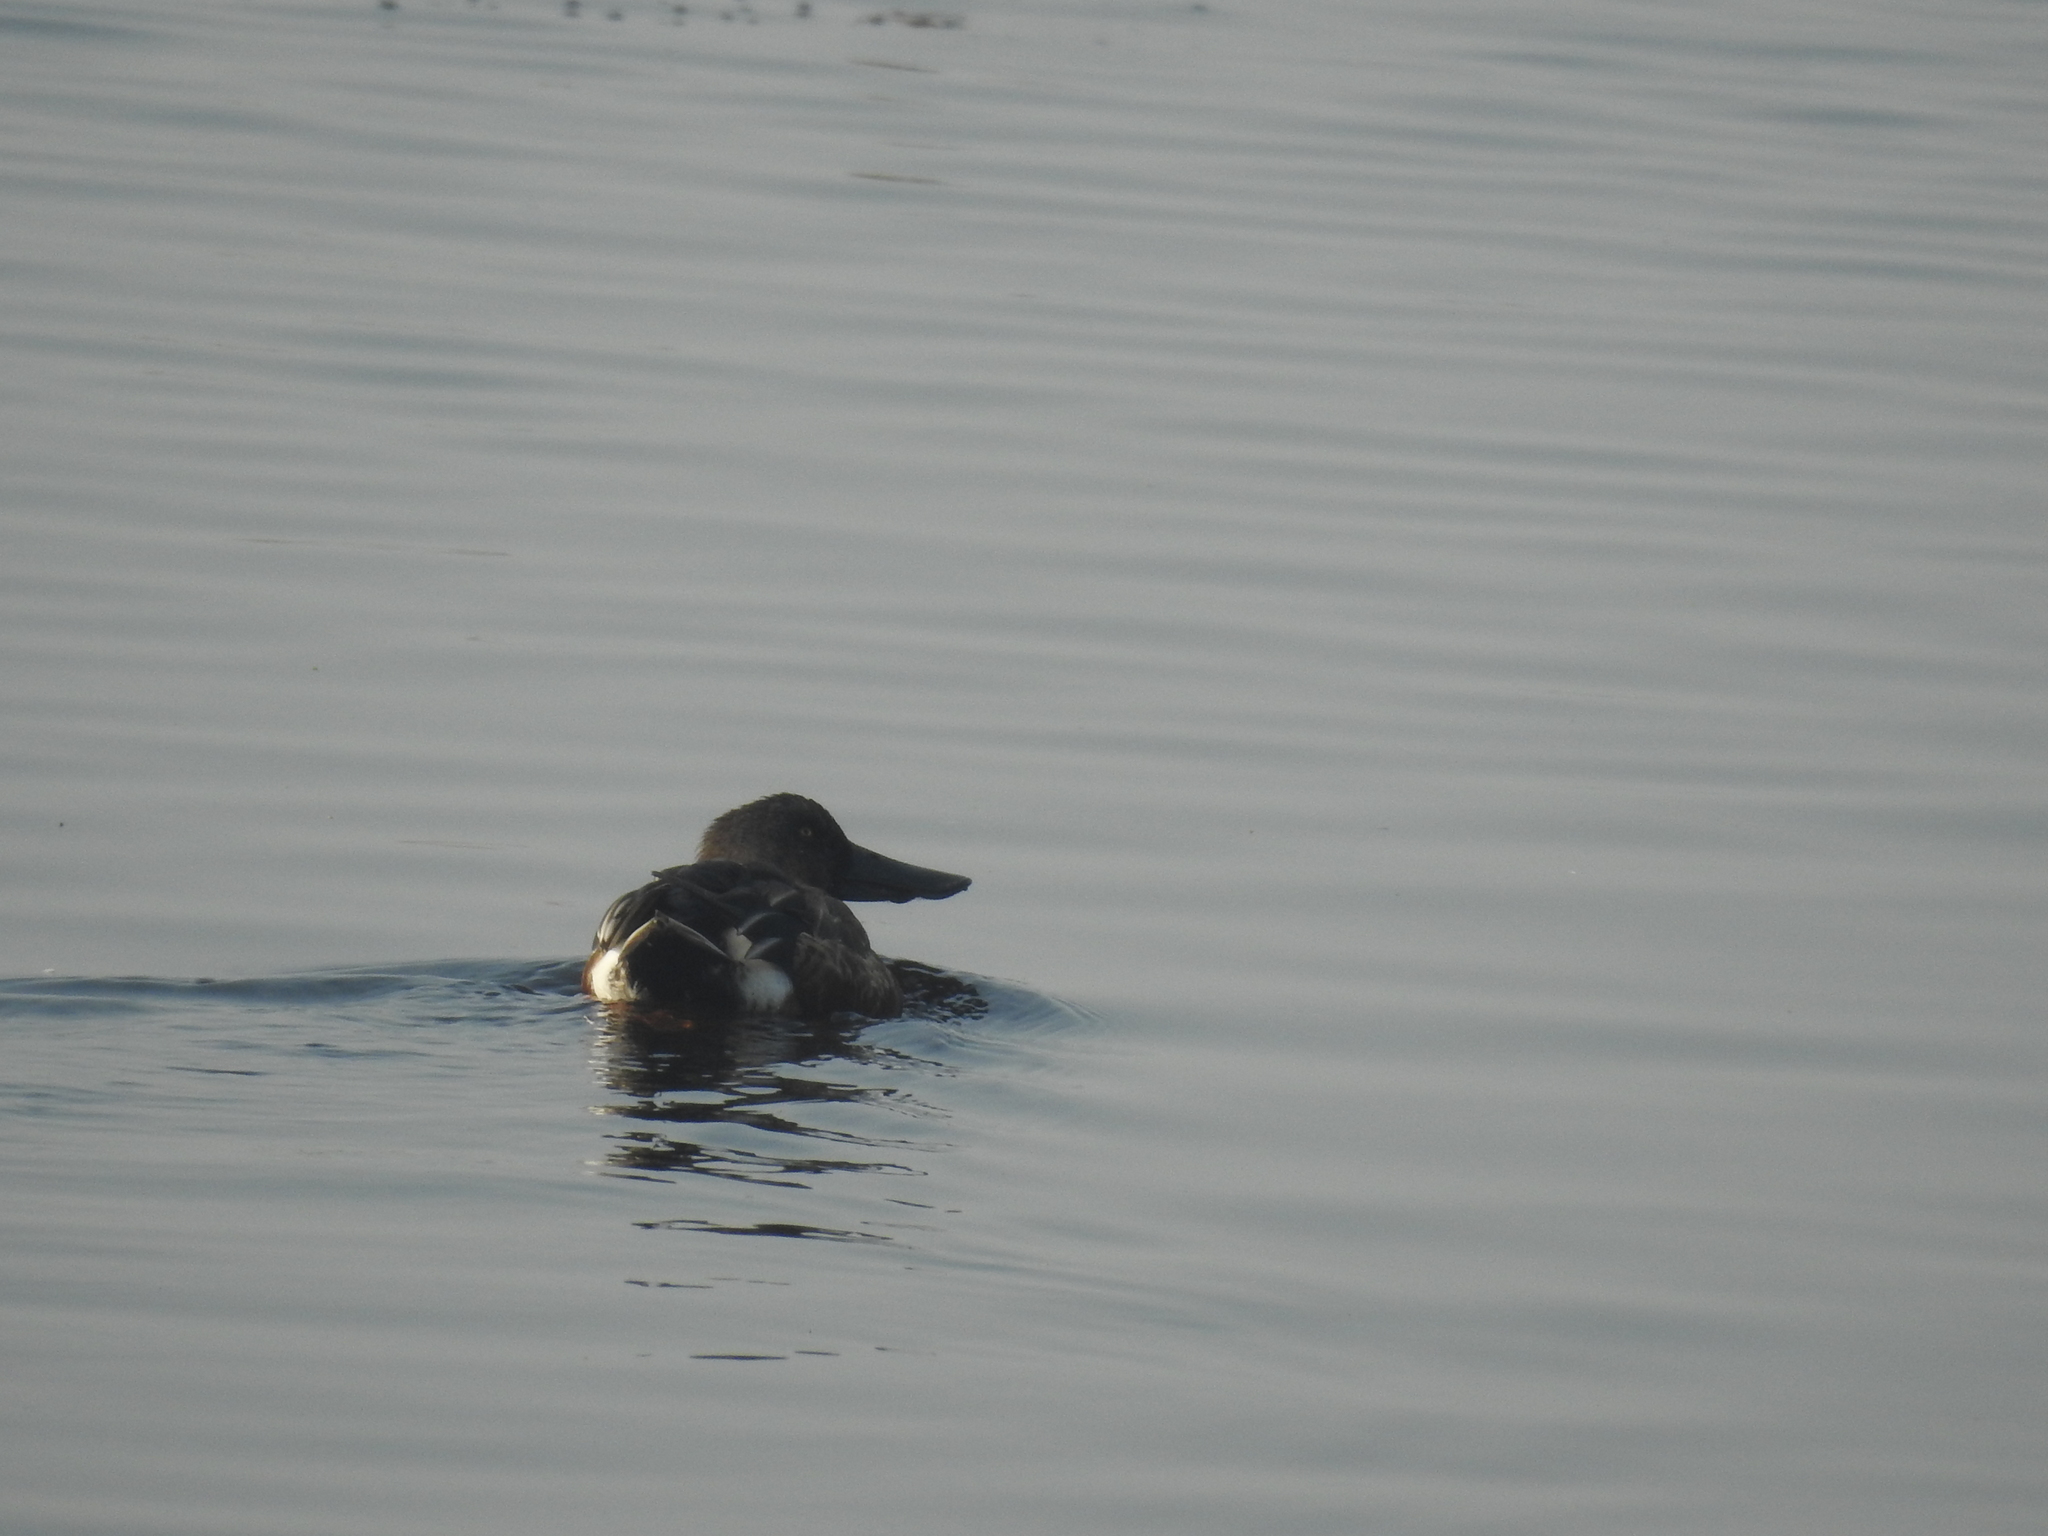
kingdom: Animalia
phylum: Chordata
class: Aves
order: Anseriformes
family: Anatidae
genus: Spatula
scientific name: Spatula clypeata
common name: Northern shoveler
